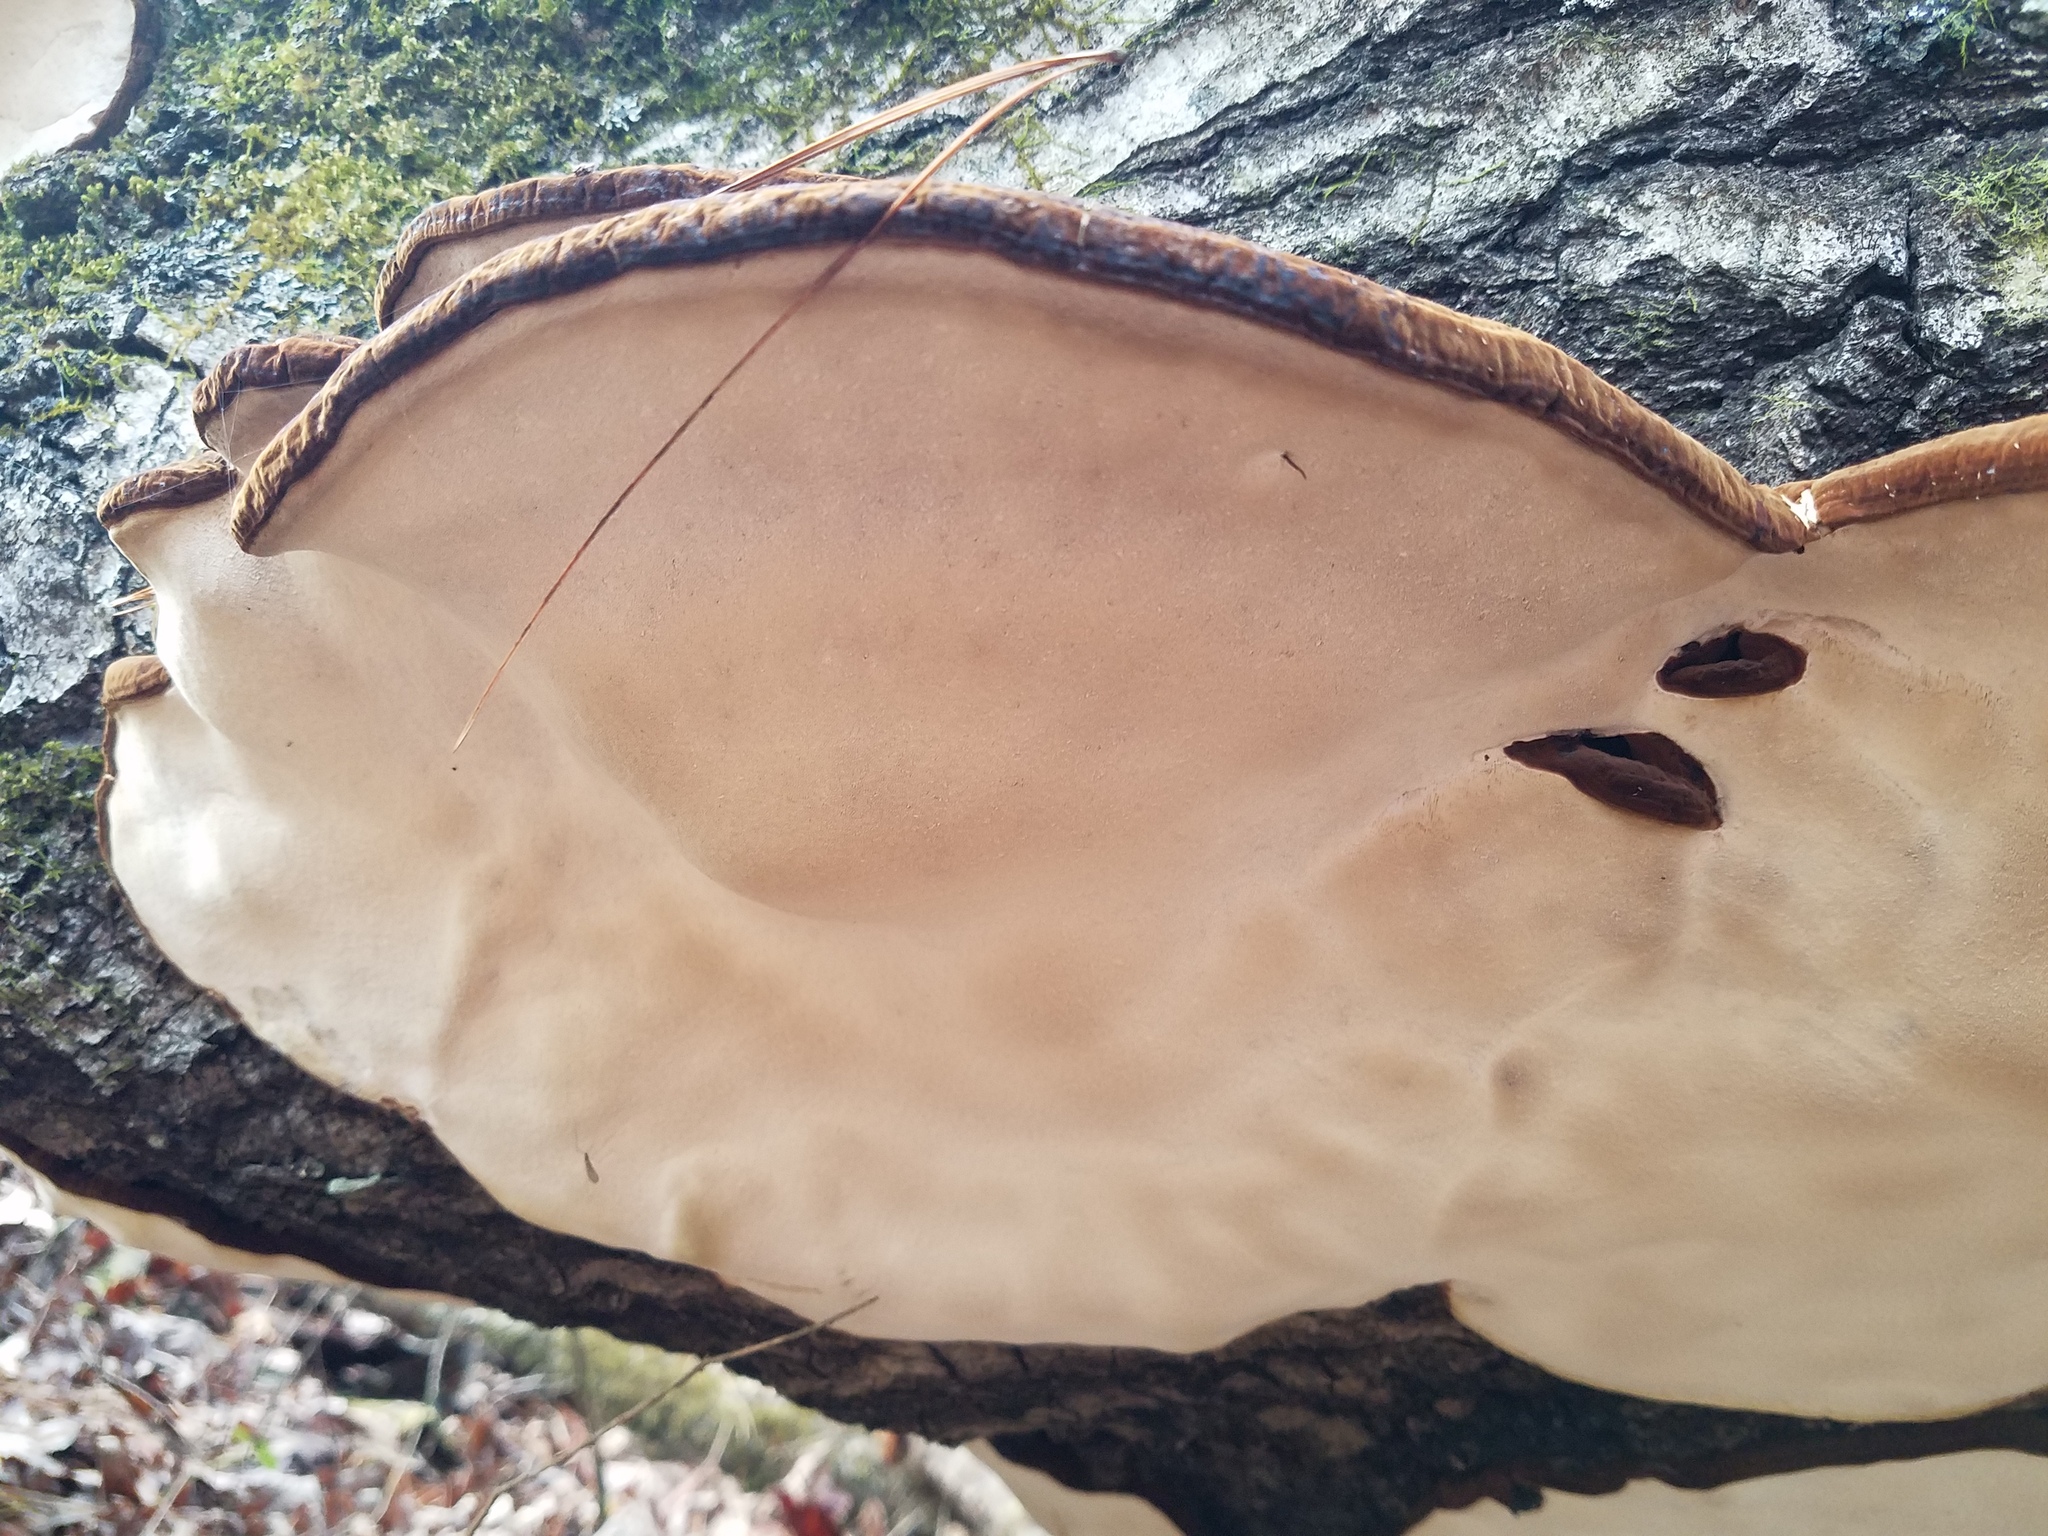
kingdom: Fungi
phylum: Basidiomycota
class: Agaricomycetes
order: Polyporales
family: Ischnodermataceae
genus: Ischnoderma
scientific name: Ischnoderma resinosum
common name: Resinous polypore
